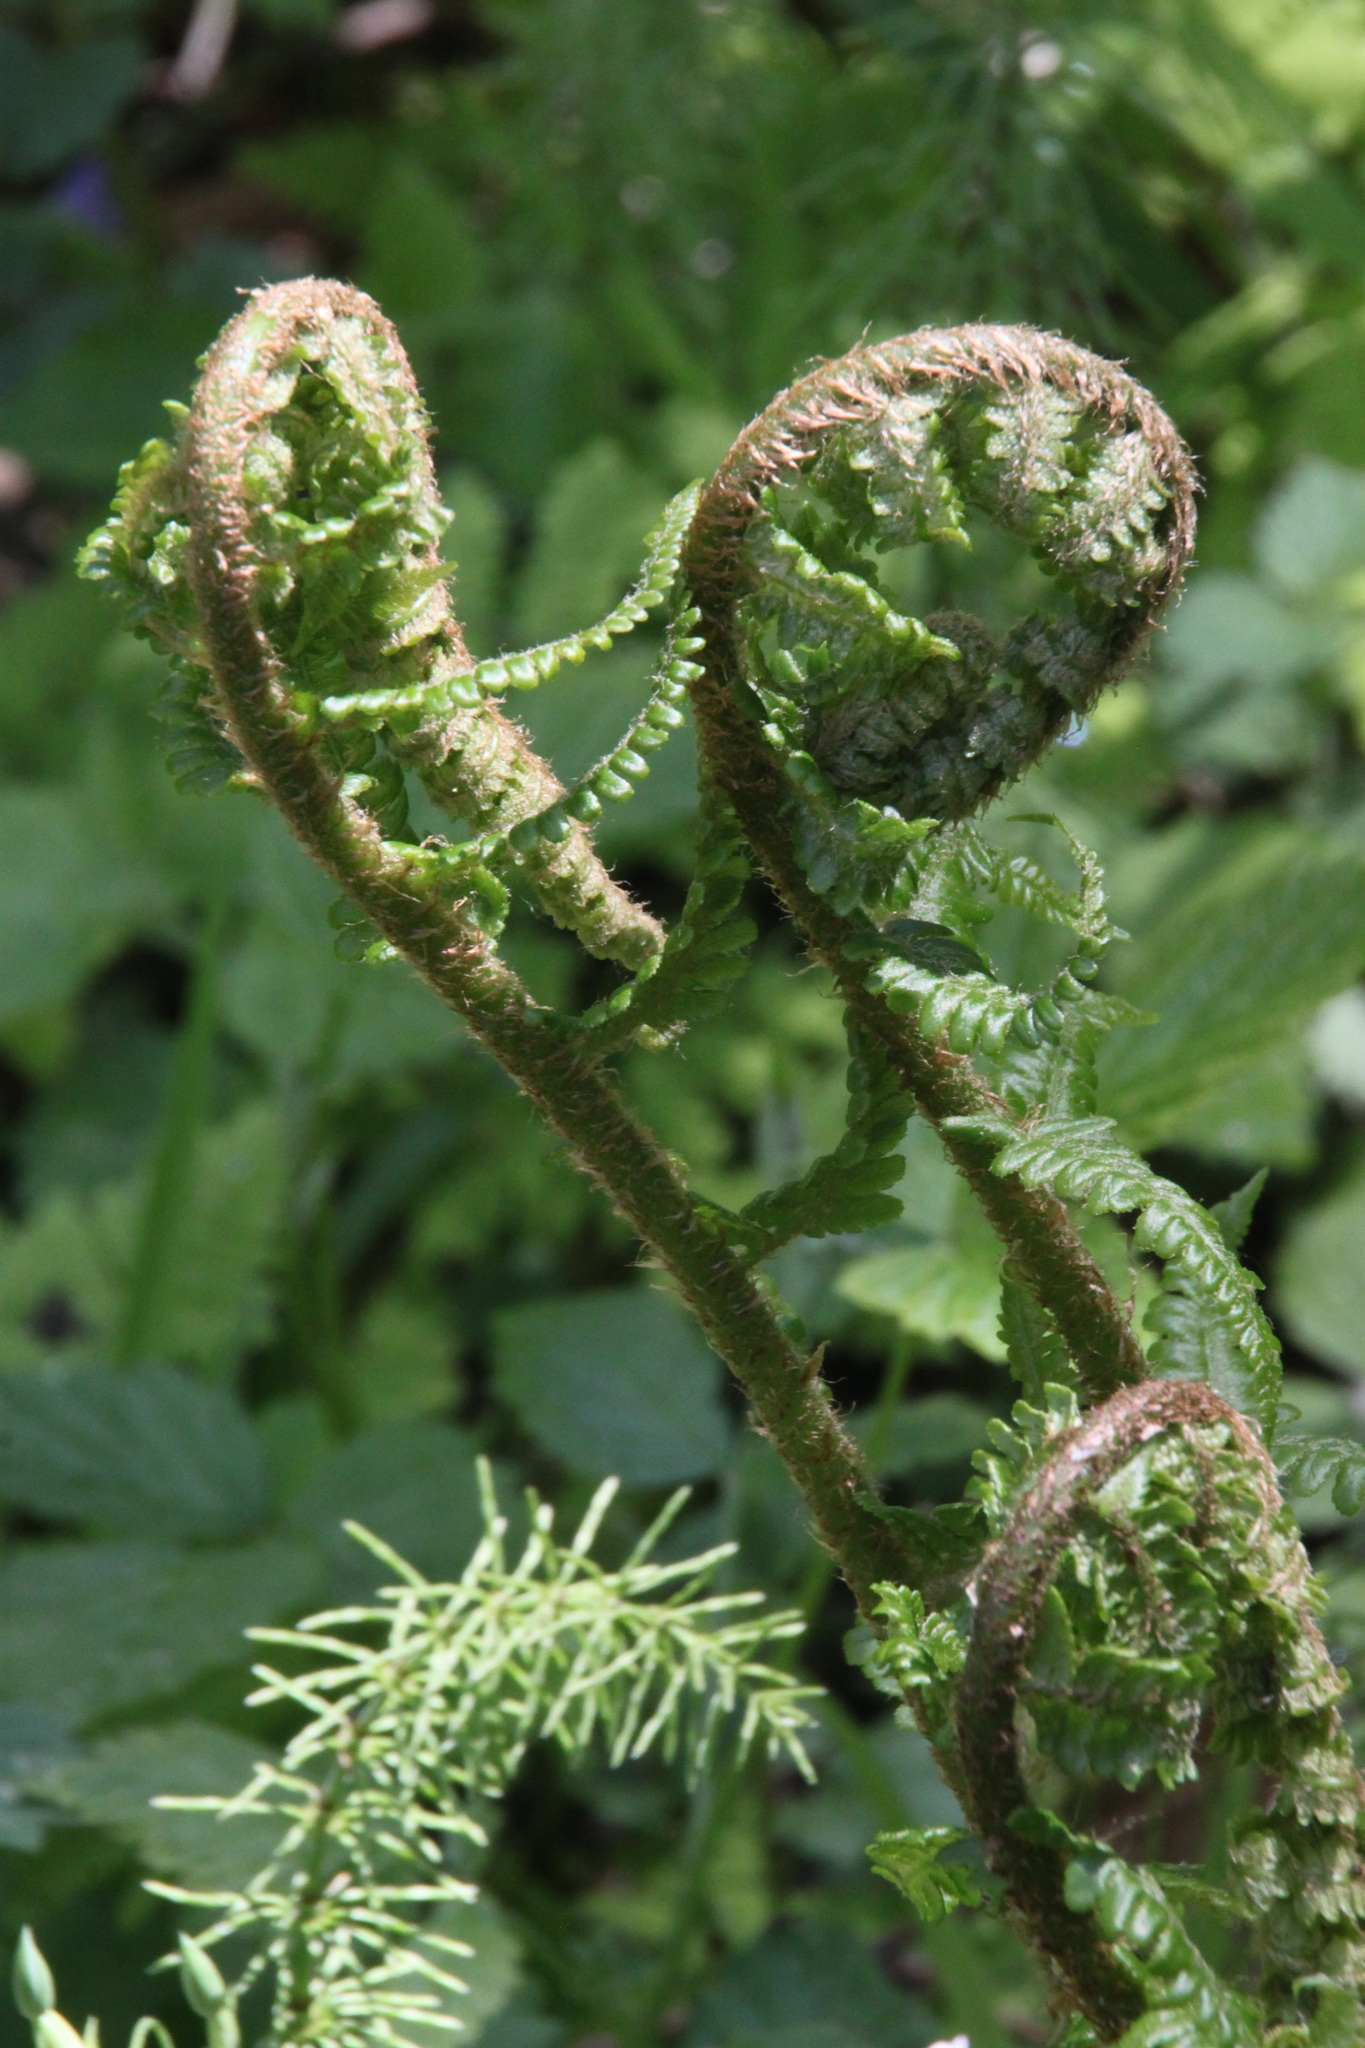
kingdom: Plantae
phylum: Tracheophyta
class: Polypodiopsida
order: Polypodiales
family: Dryopteridaceae
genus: Dryopteris
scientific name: Dryopteris filix-mas
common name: Male fern
